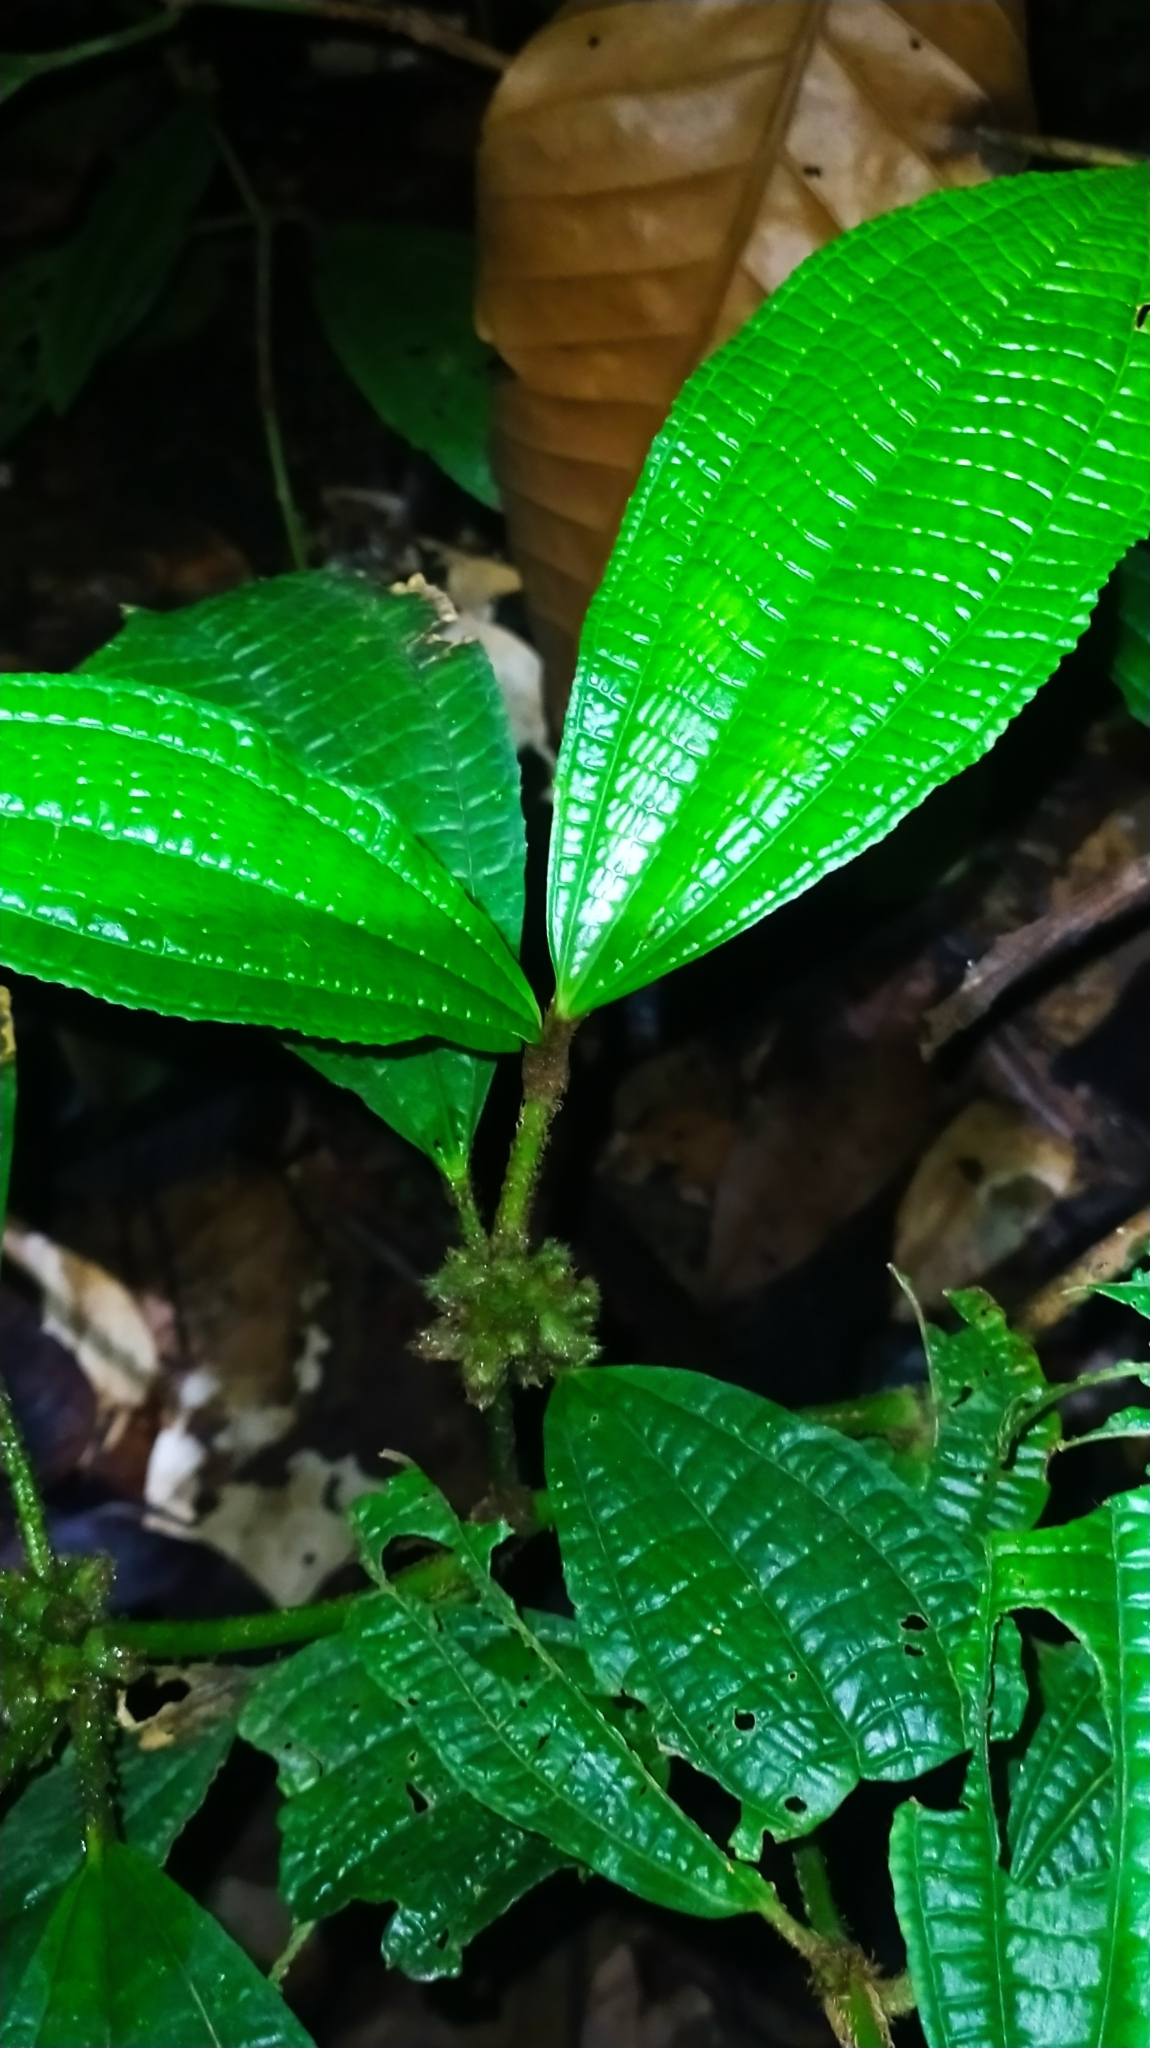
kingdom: Plantae
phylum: Tracheophyta
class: Magnoliopsida
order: Myrtales
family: Melastomataceae
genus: Miconia
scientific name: Miconia conglomerata
